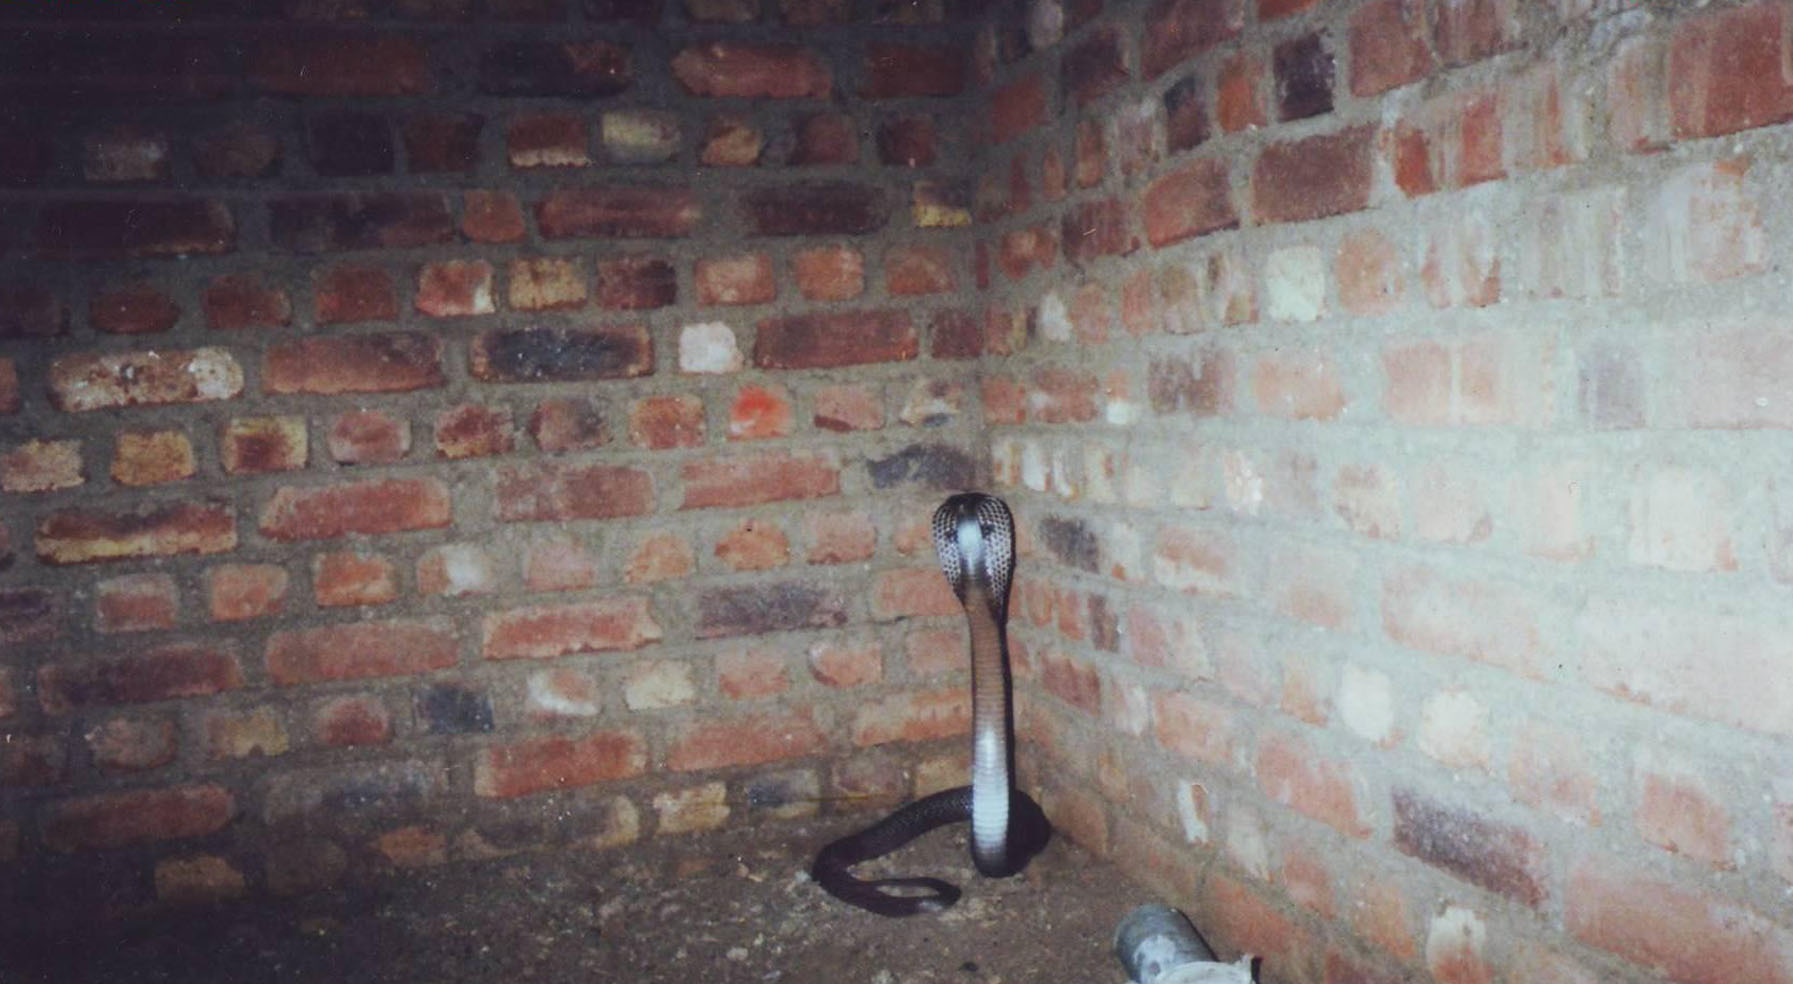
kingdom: Animalia
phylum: Chordata
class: Squamata
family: Elapidae
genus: Naja
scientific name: Naja naja
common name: Indian cobra
